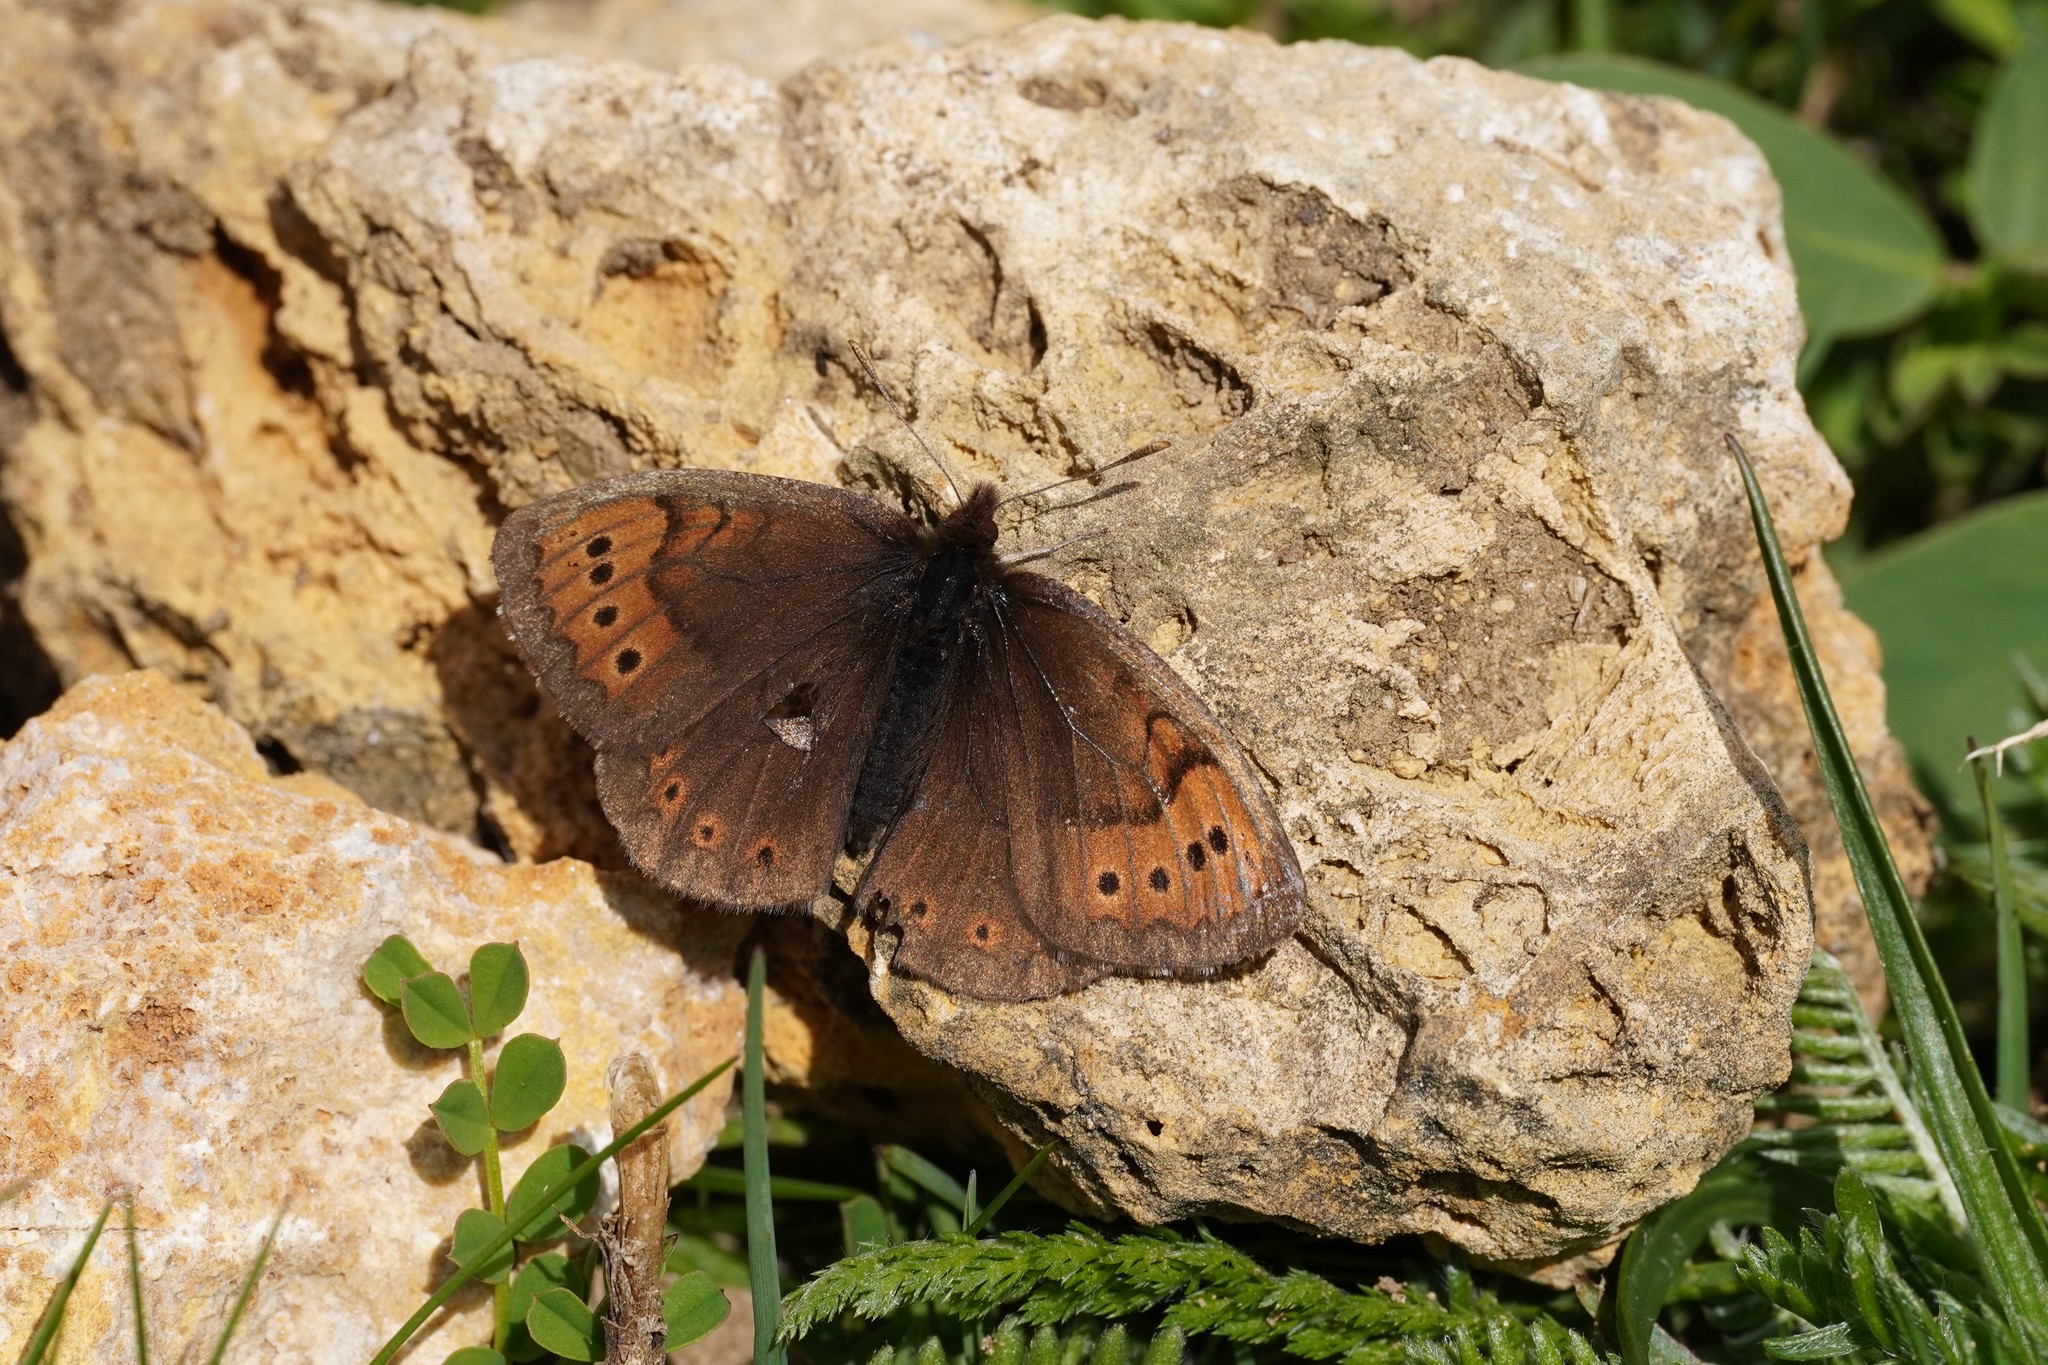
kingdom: Animalia
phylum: Arthropoda
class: Insecta
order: Lepidoptera
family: Nymphalidae
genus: Erebia
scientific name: Erebia pandrose
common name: Dewy ringlet
